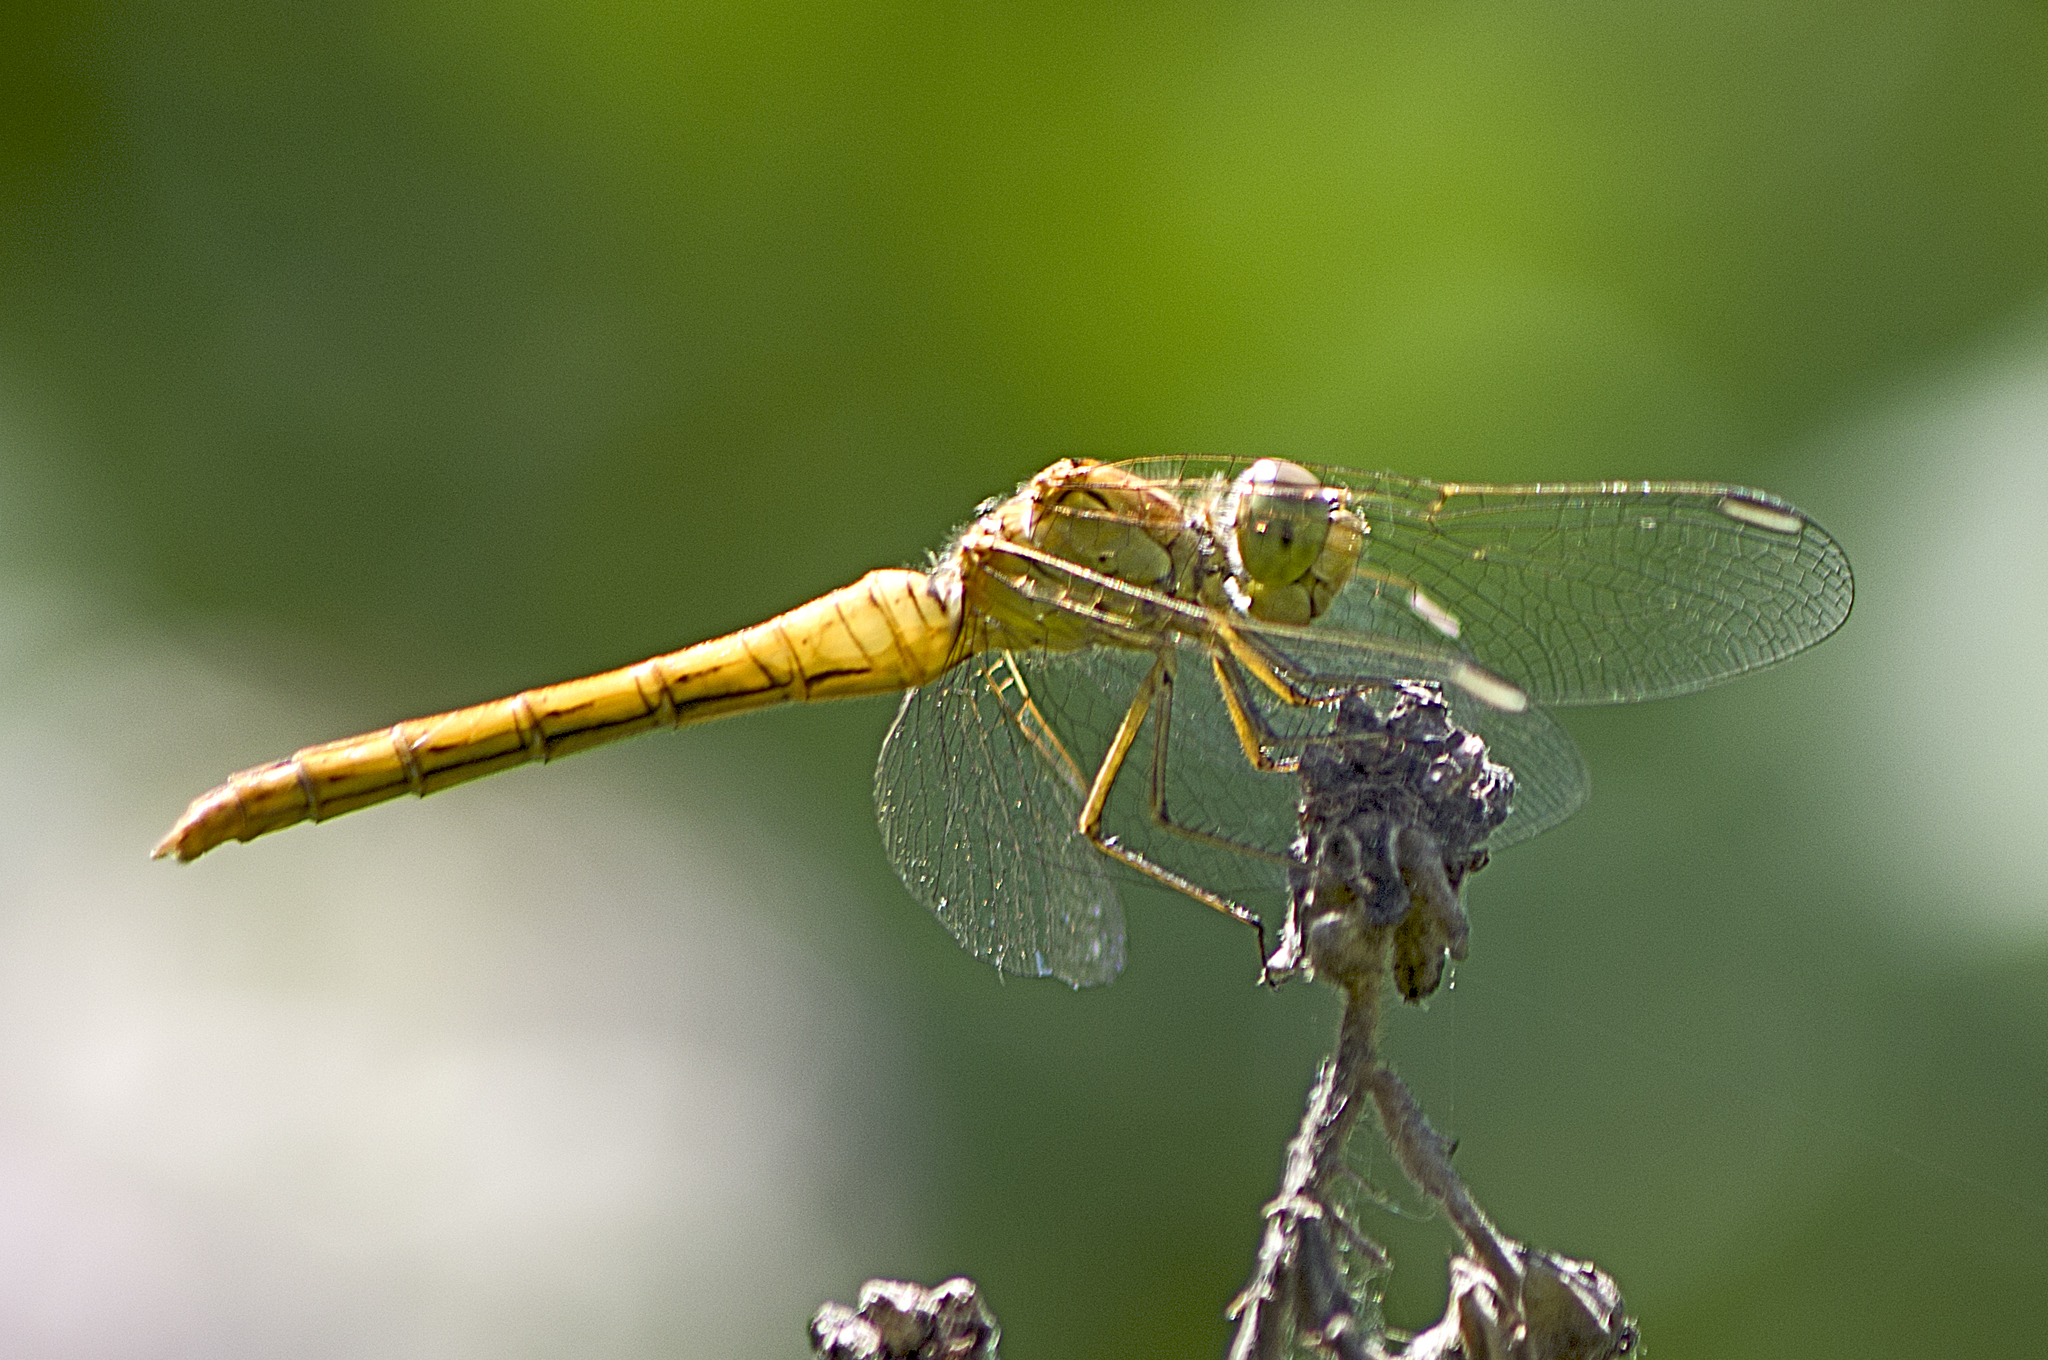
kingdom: Animalia
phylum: Arthropoda
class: Insecta
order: Odonata
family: Libellulidae
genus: Sympetrum
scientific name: Sympetrum meridionale
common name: Southern darter
